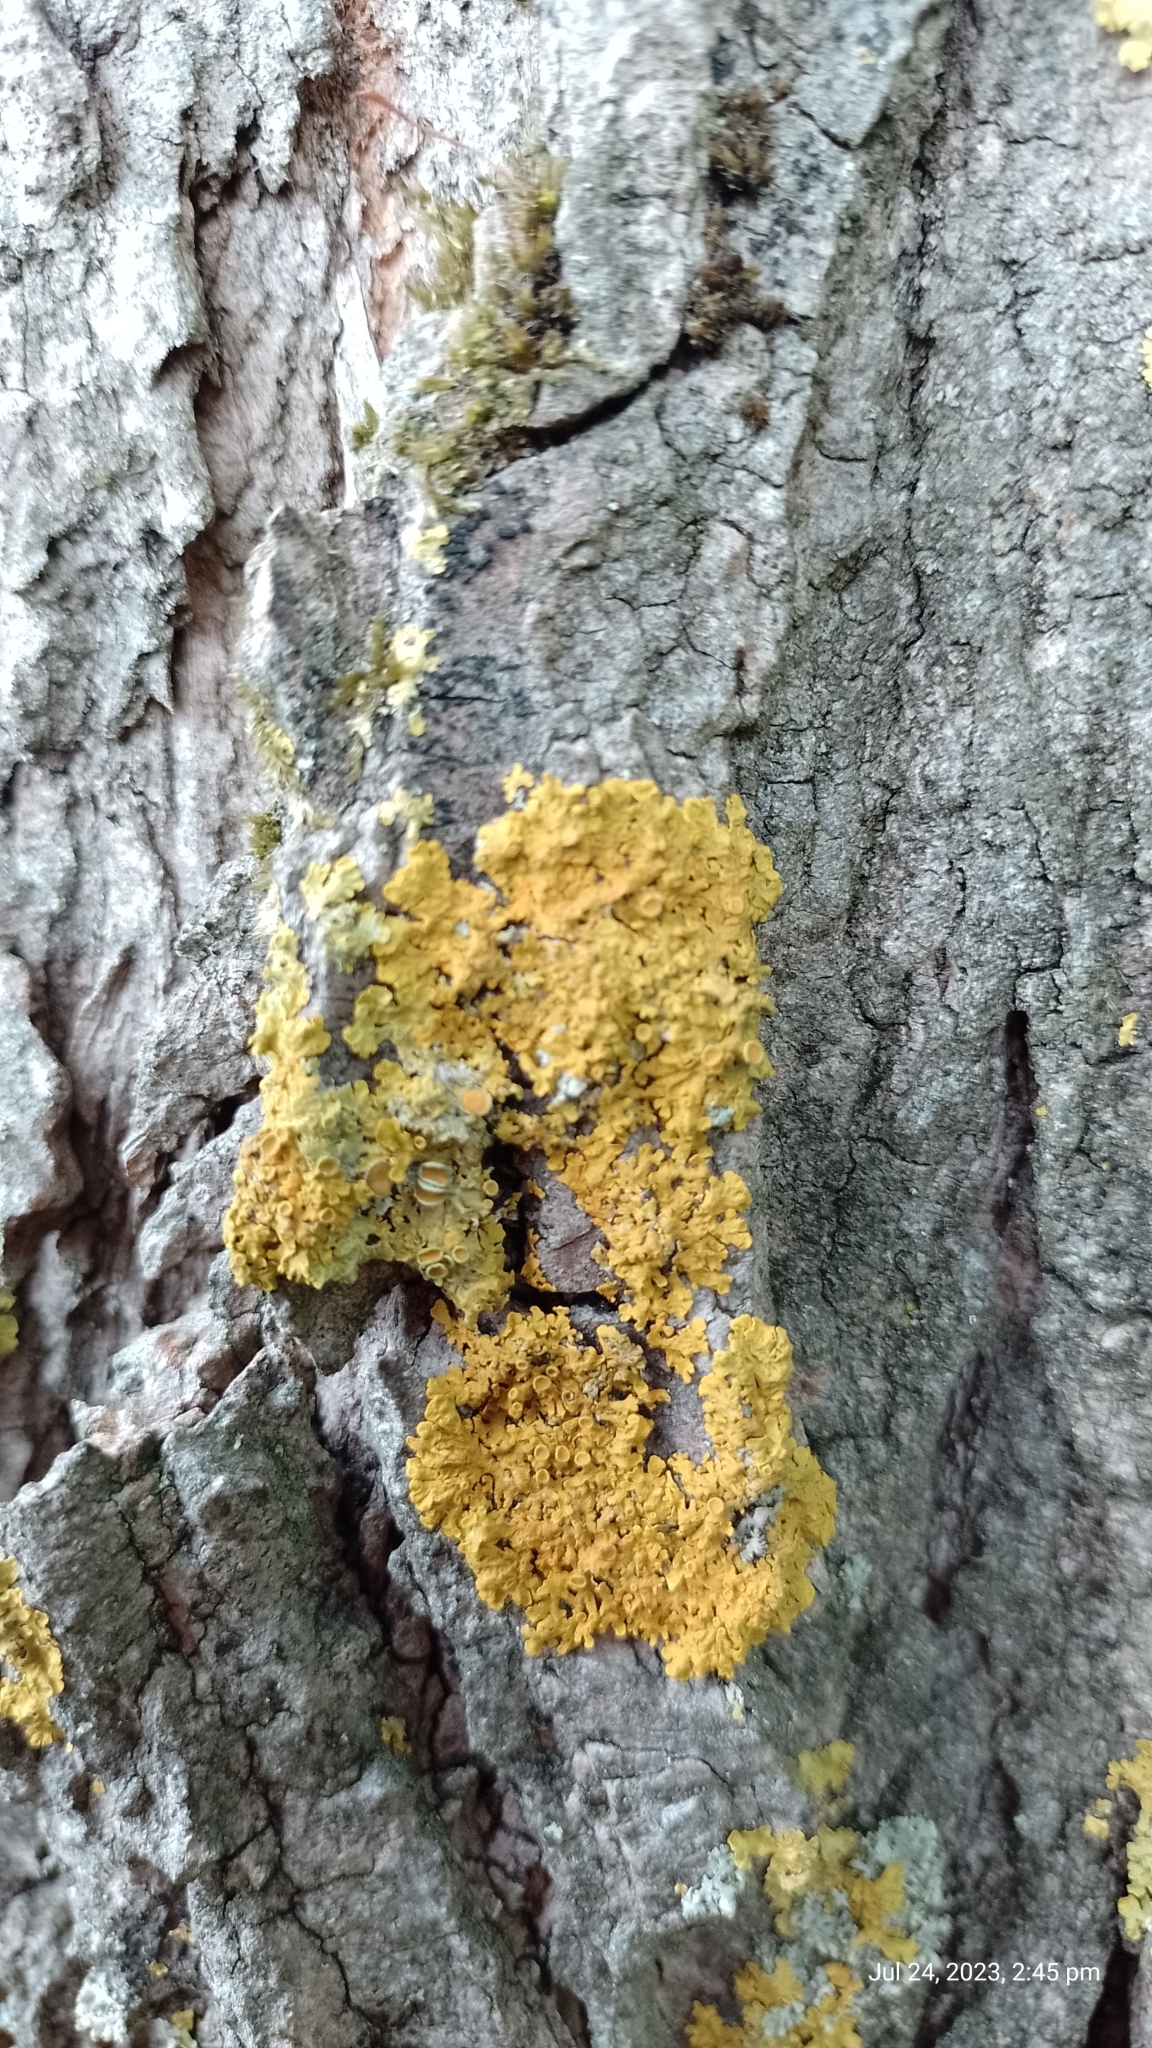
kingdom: Fungi
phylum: Ascomycota
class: Lecanoromycetes
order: Teloschistales
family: Teloschistaceae
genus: Xanthoria
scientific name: Xanthoria parietina
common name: Common orange lichen
